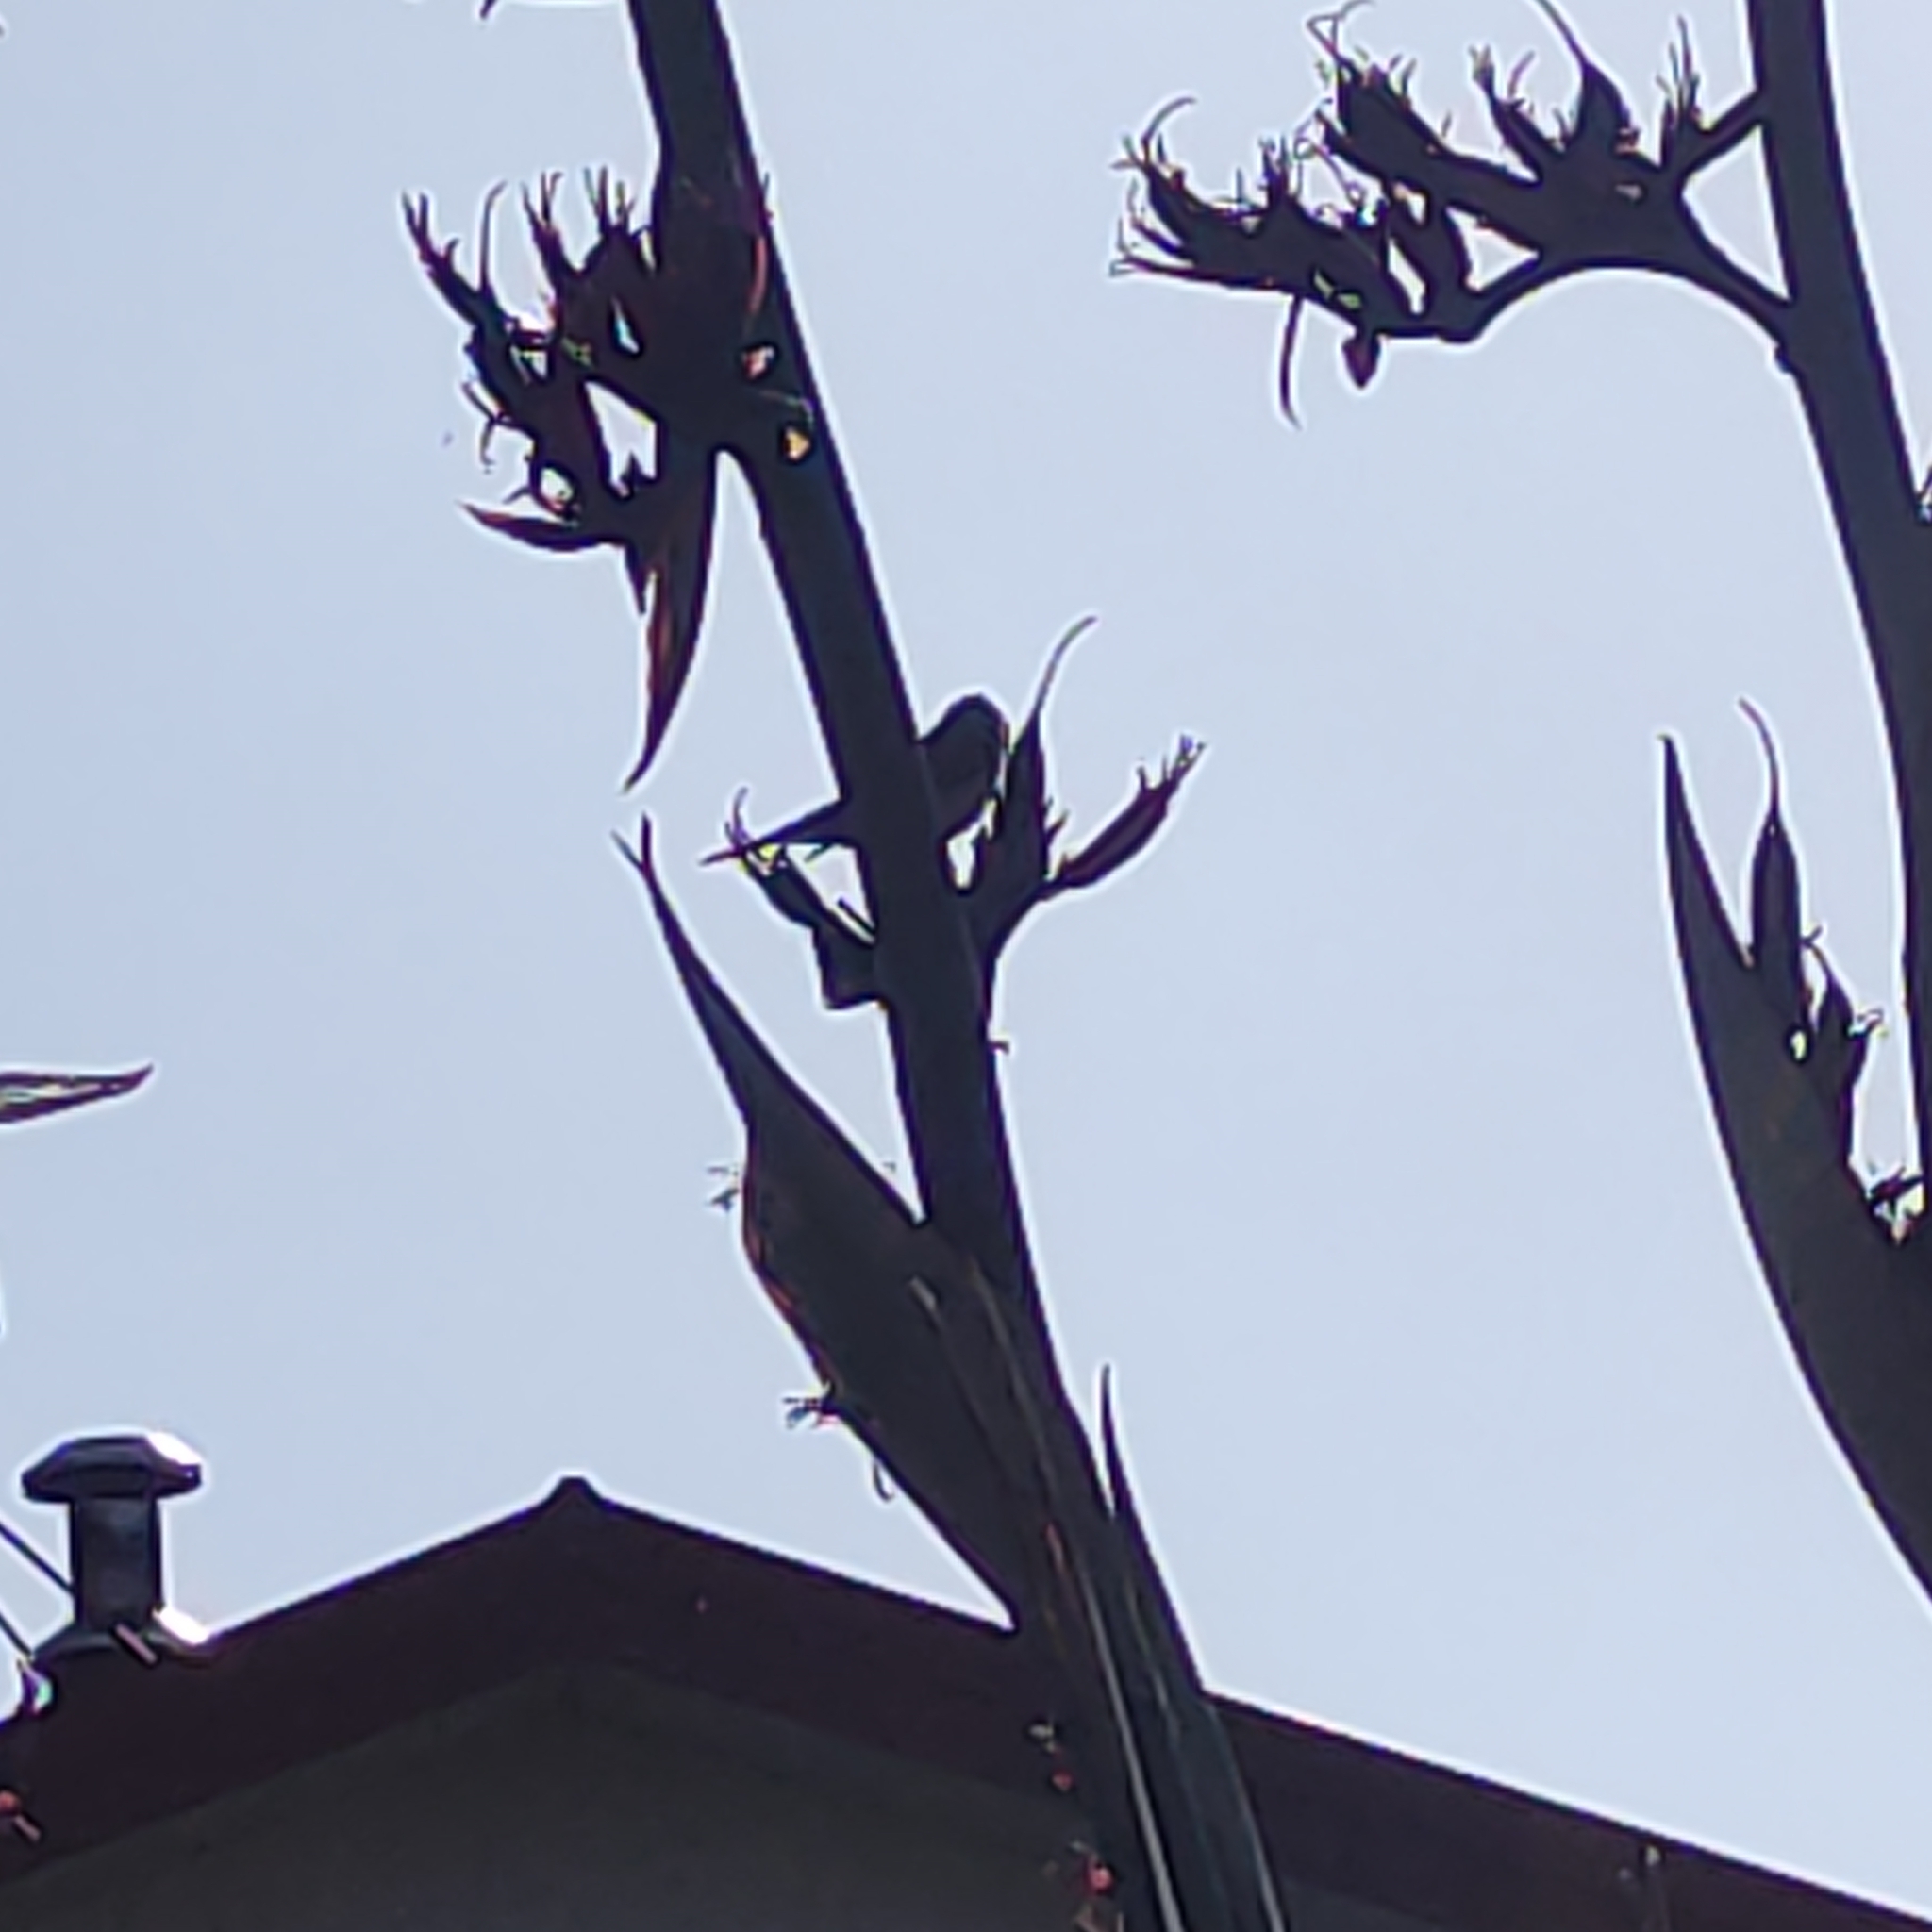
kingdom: Animalia
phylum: Chordata
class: Aves
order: Passeriformes
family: Zosteropidae
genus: Zosterops
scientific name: Zosterops lateralis
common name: Silvereye
